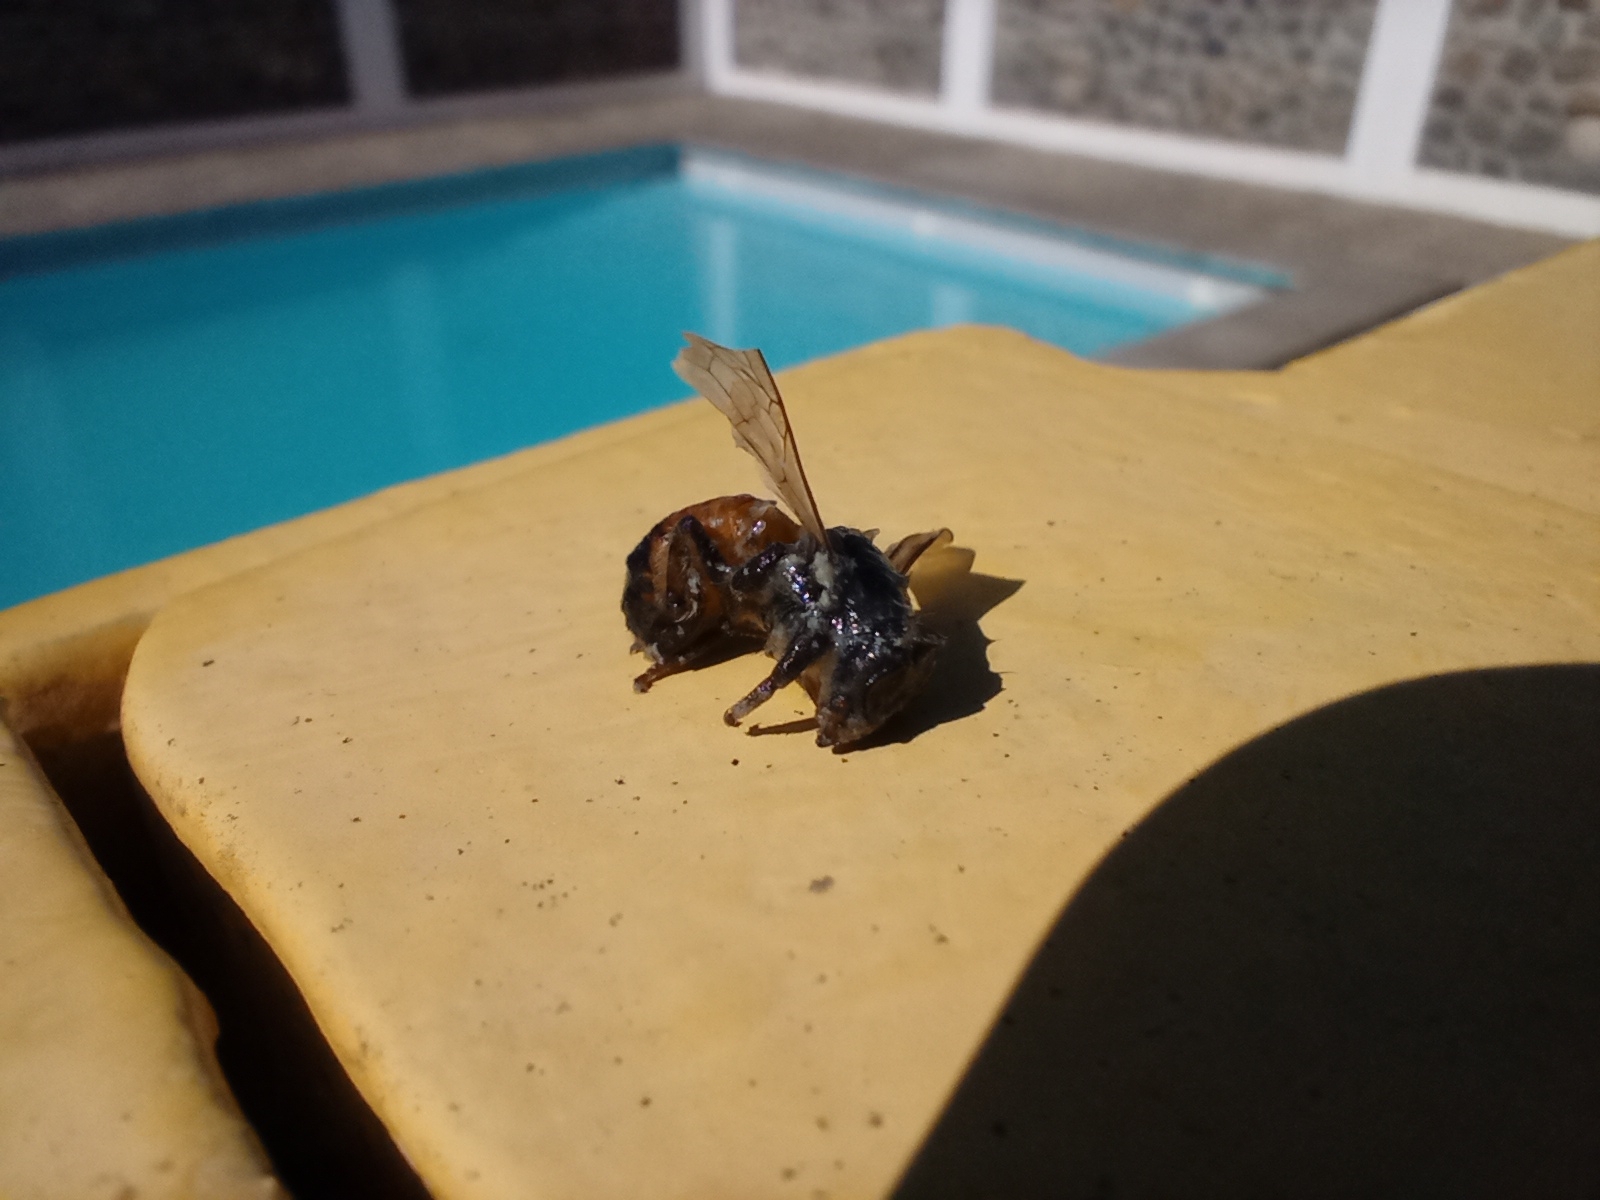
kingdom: Animalia
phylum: Arthropoda
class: Insecta
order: Hymenoptera
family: Apidae
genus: Apis
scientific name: Apis mellifera
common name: Honey bee
